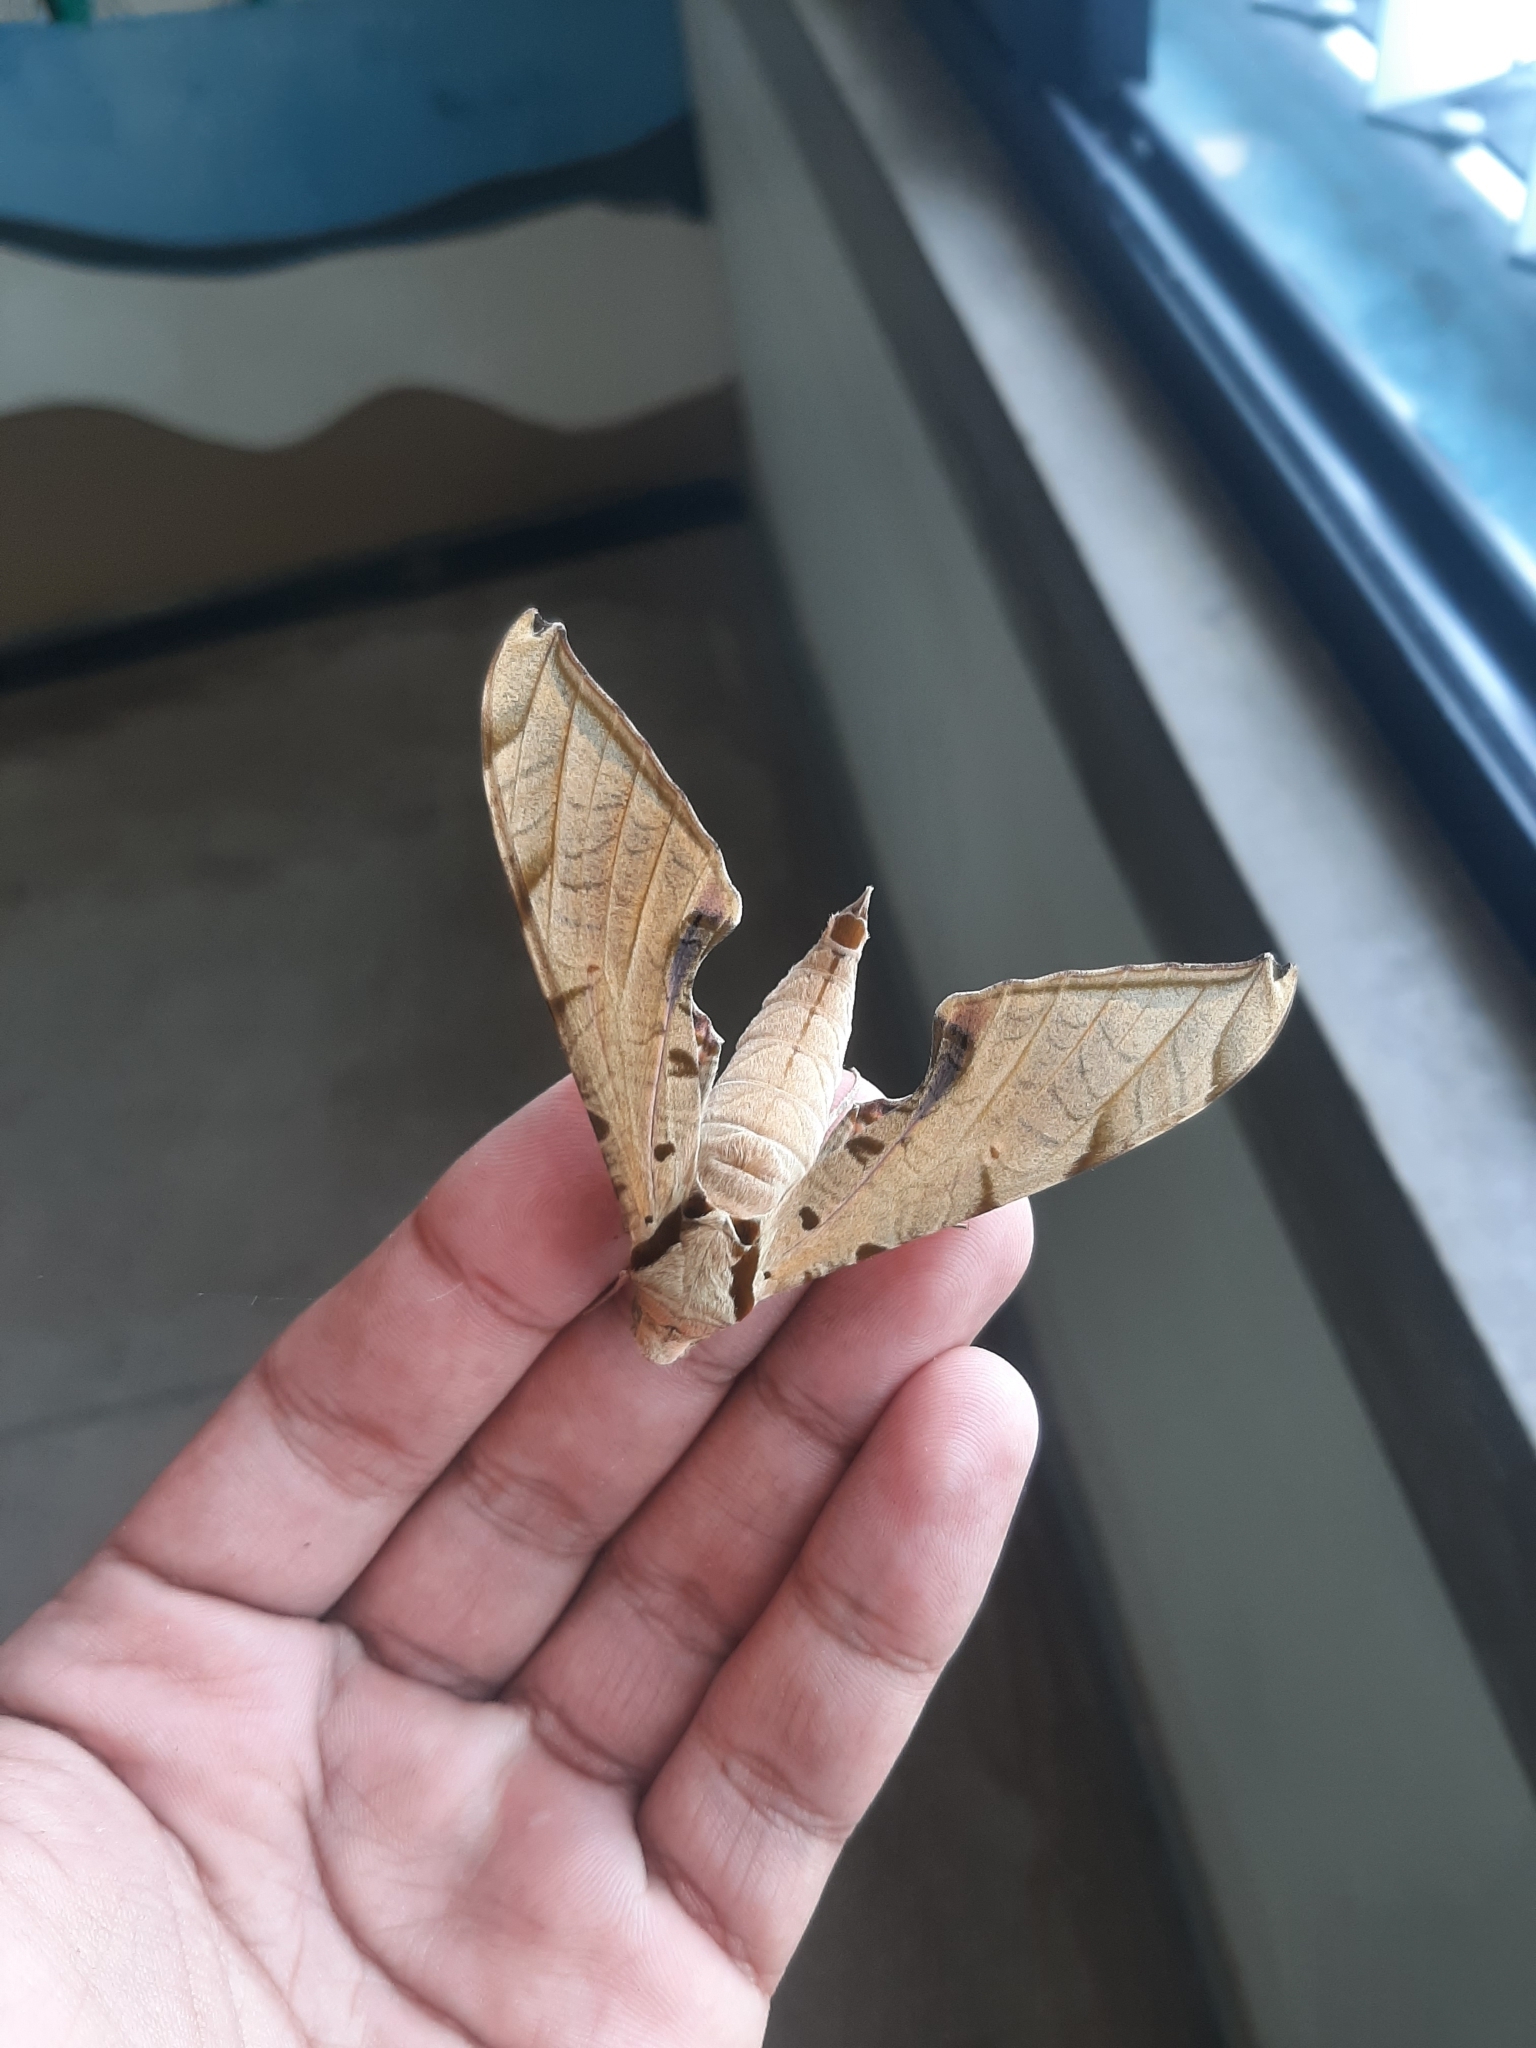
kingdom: Animalia
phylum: Arthropoda
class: Insecta
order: Lepidoptera
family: Sphingidae
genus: Protambulyx
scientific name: Protambulyx strigilis
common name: Streaked sphinx
